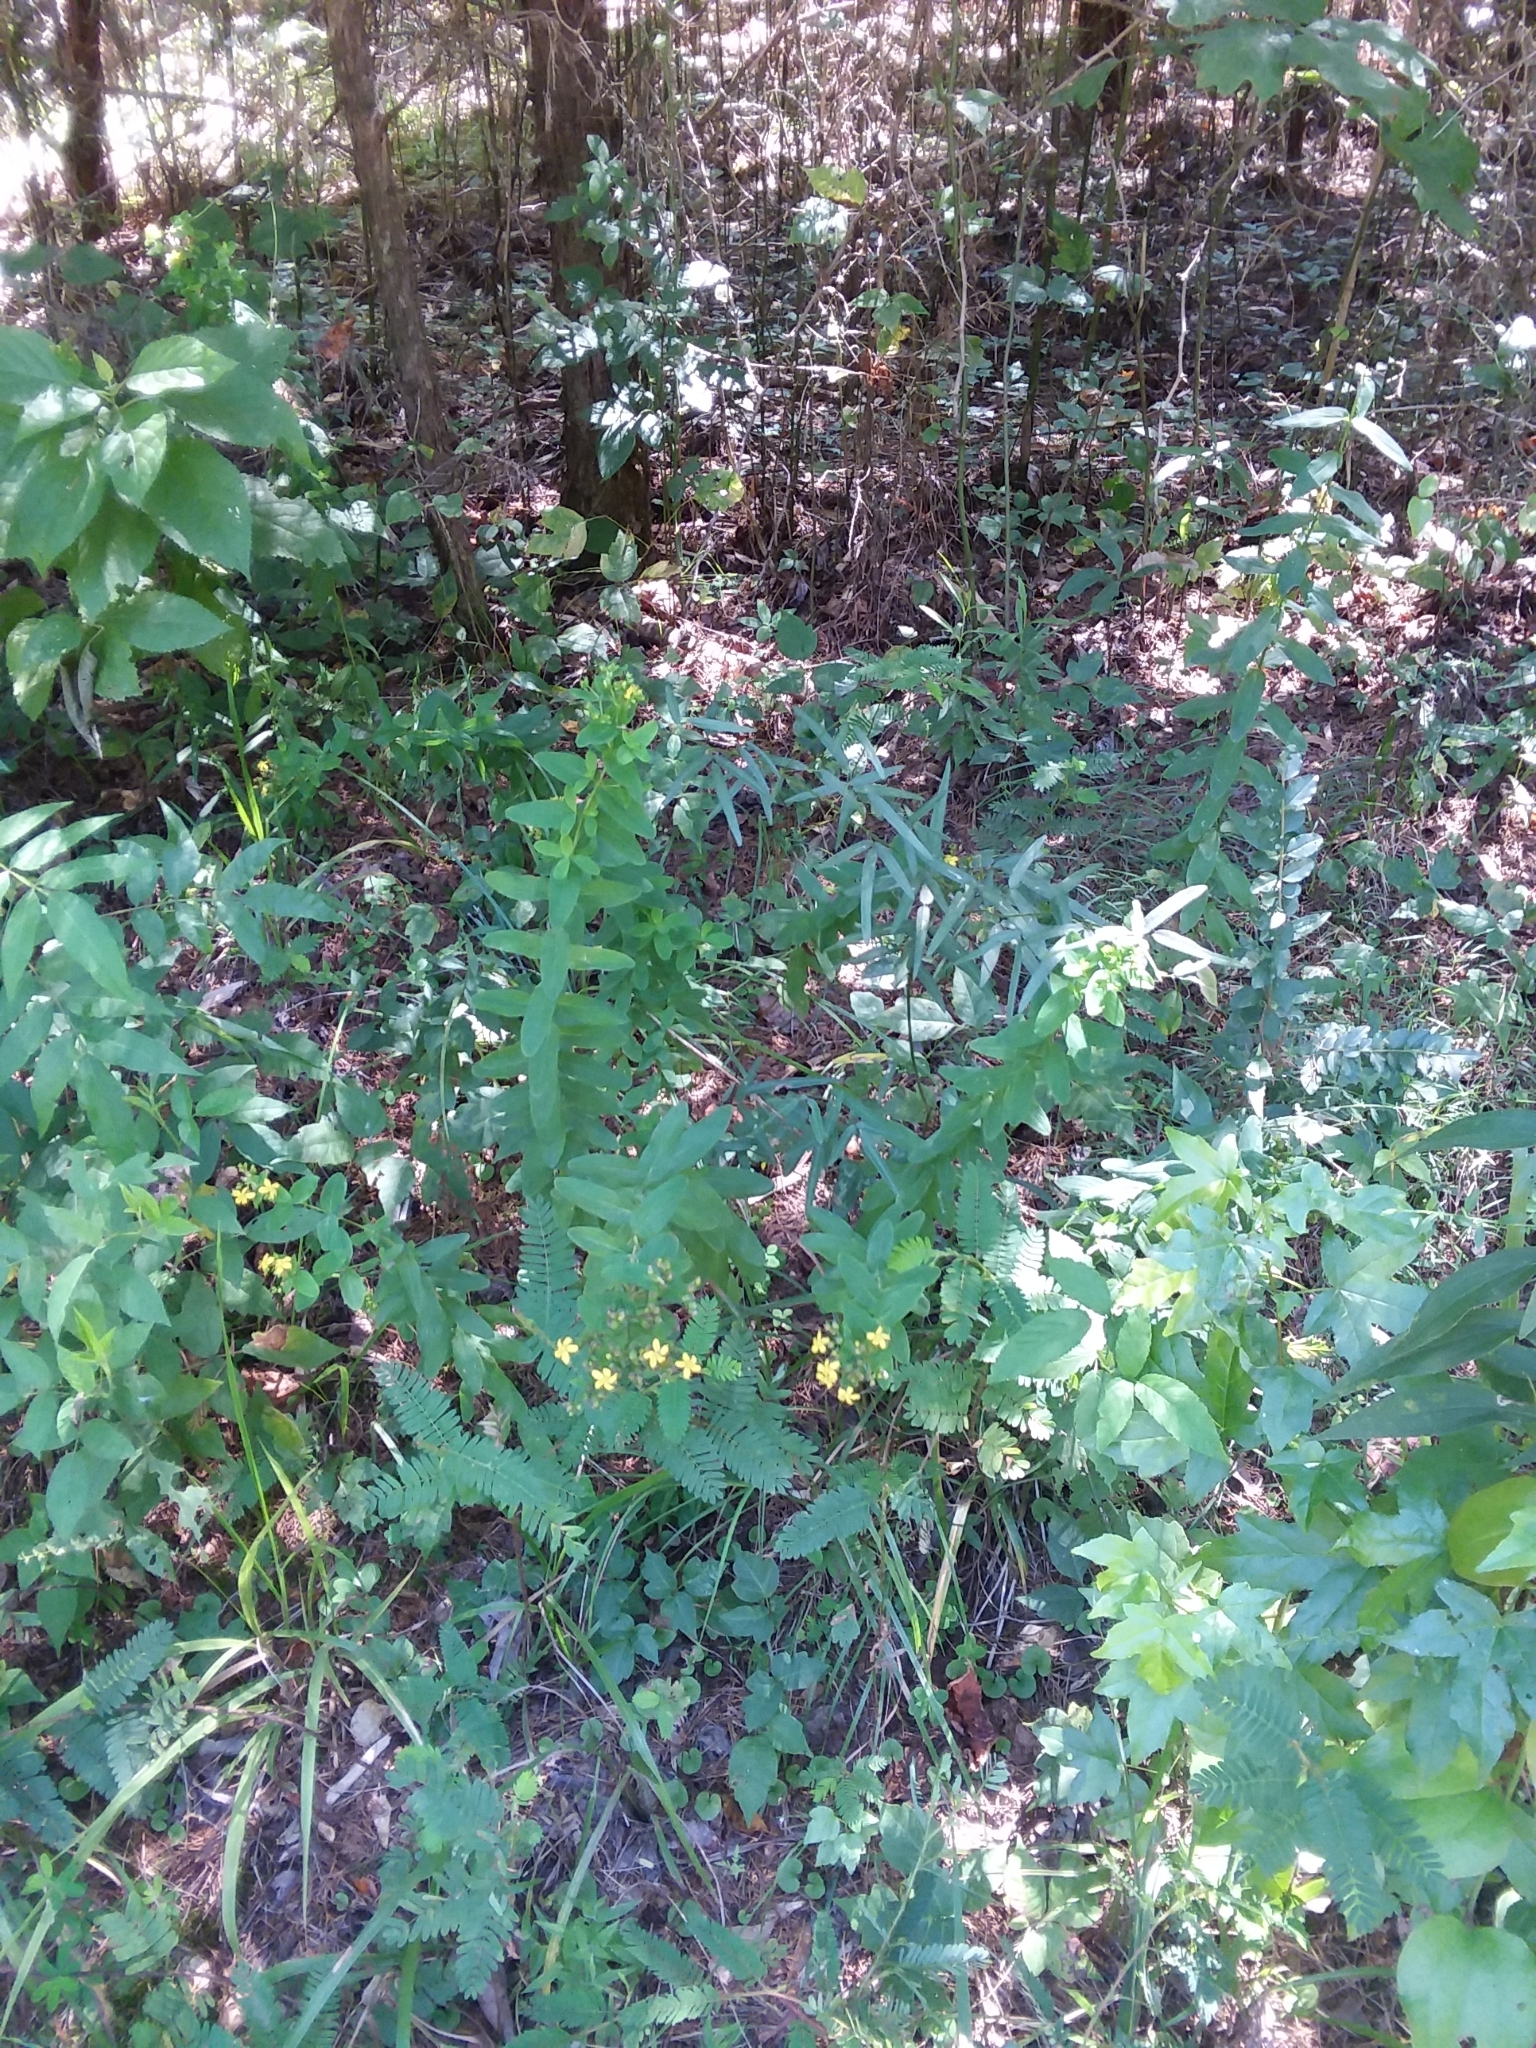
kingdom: Plantae
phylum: Tracheophyta
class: Magnoliopsida
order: Malpighiales
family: Hypericaceae
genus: Hypericum
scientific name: Hypericum punctatum
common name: Spotted st. john's-wort
